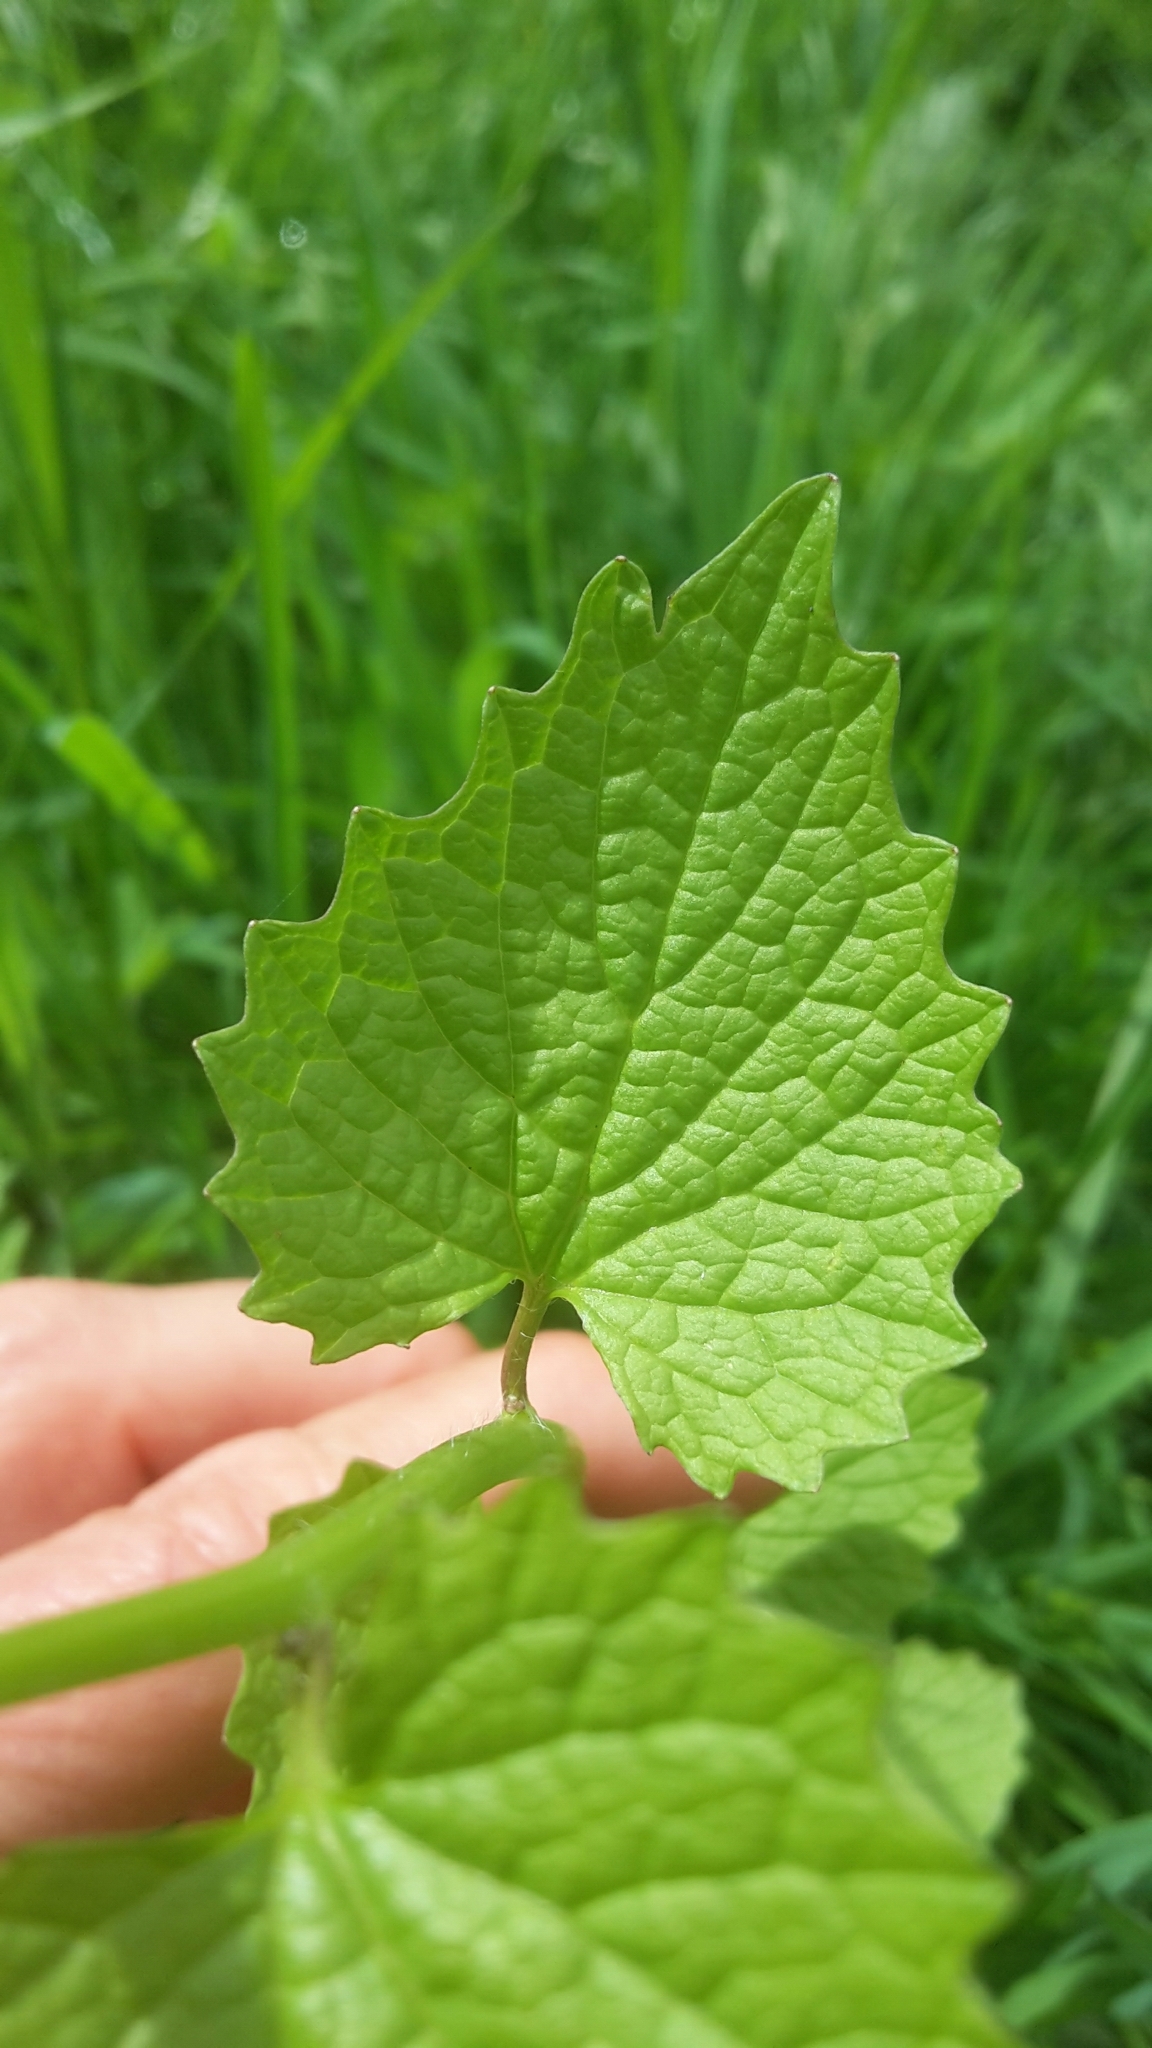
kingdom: Plantae
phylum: Tracheophyta
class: Magnoliopsida
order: Brassicales
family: Brassicaceae
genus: Alliaria
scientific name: Alliaria petiolata
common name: Garlic mustard
